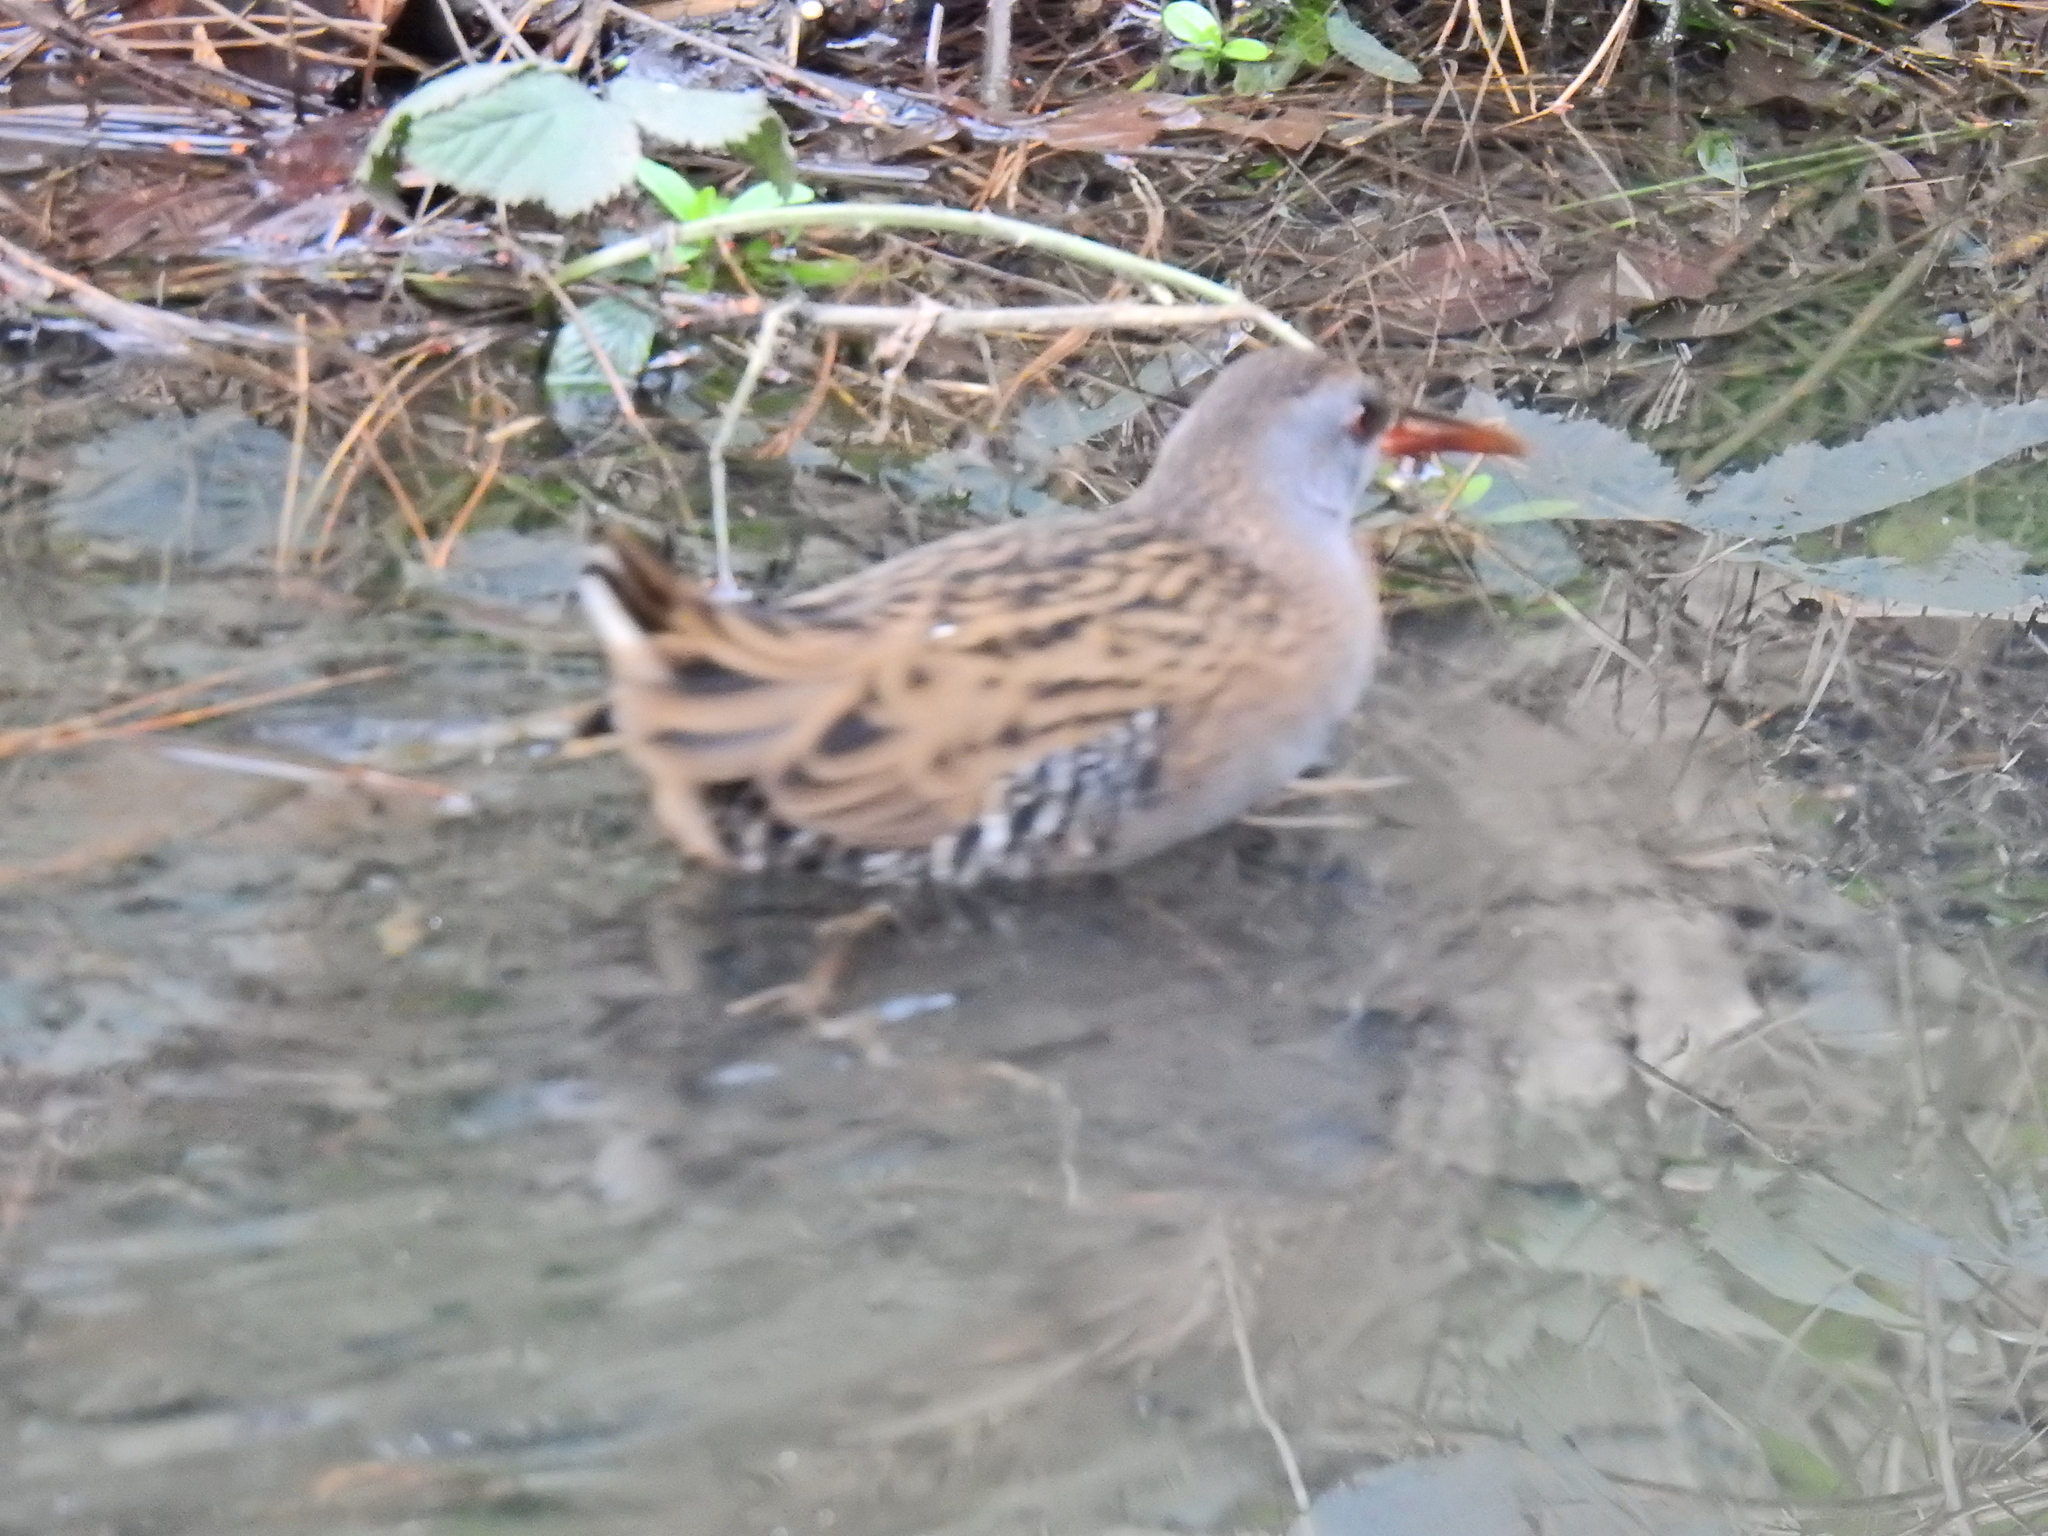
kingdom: Animalia
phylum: Chordata
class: Aves
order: Gruiformes
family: Rallidae
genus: Rallus
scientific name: Rallus aquaticus
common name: Water rail
